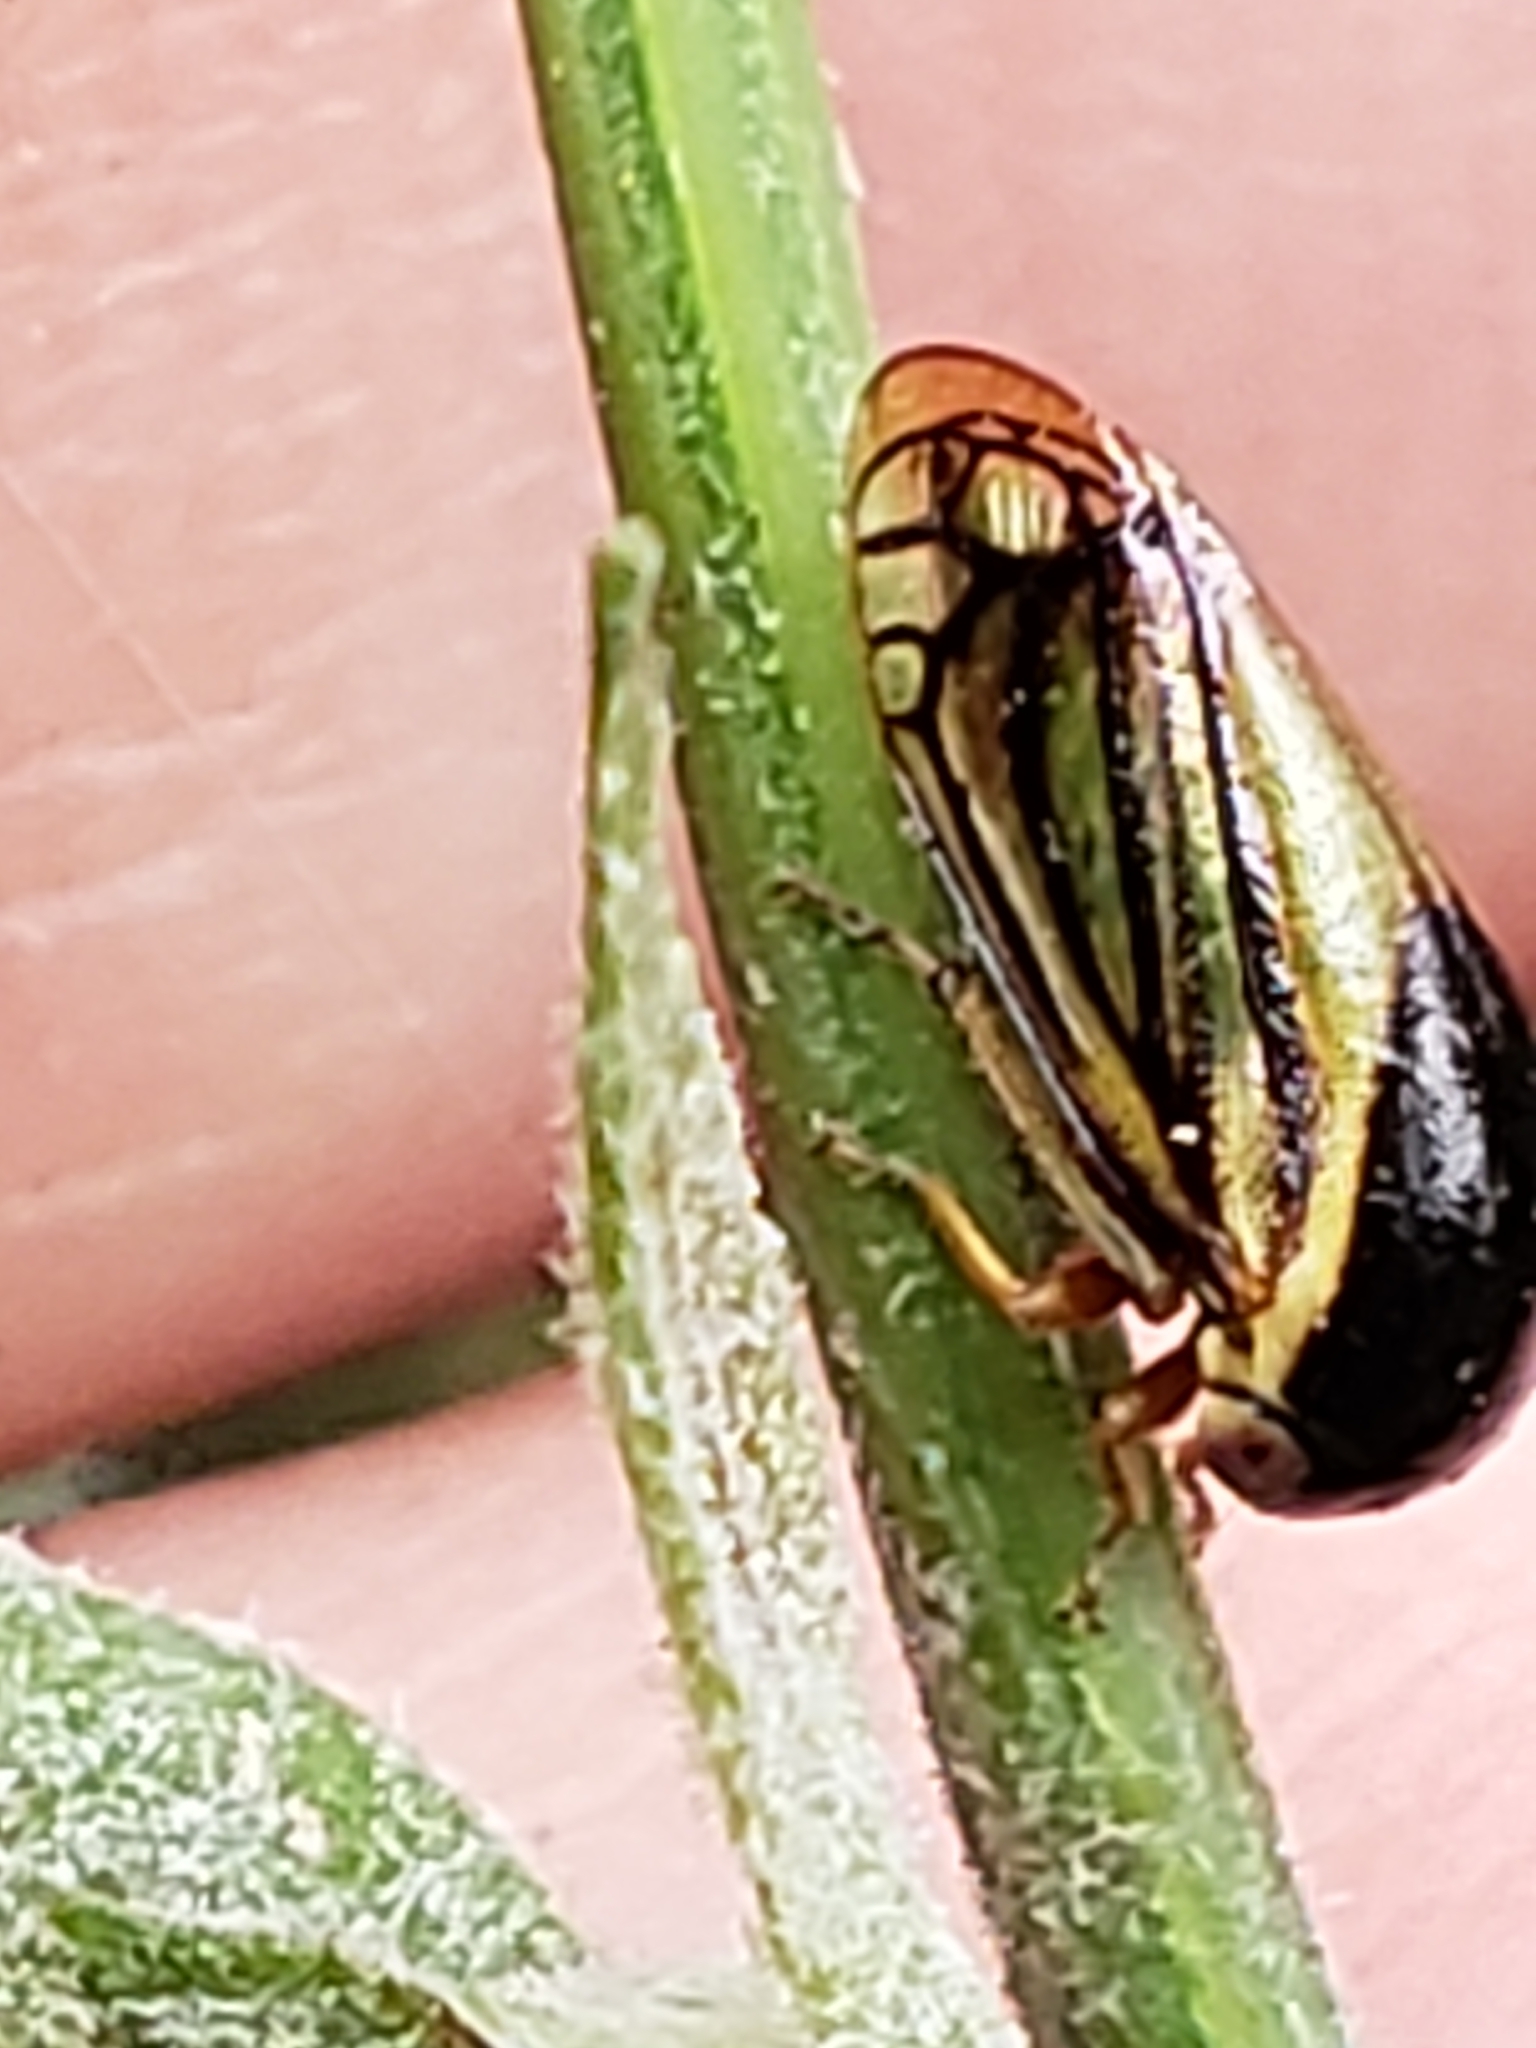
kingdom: Animalia
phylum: Arthropoda
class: Insecta
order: Hemiptera
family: Membracidae
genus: Acutalis
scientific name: Acutalis tartarea
